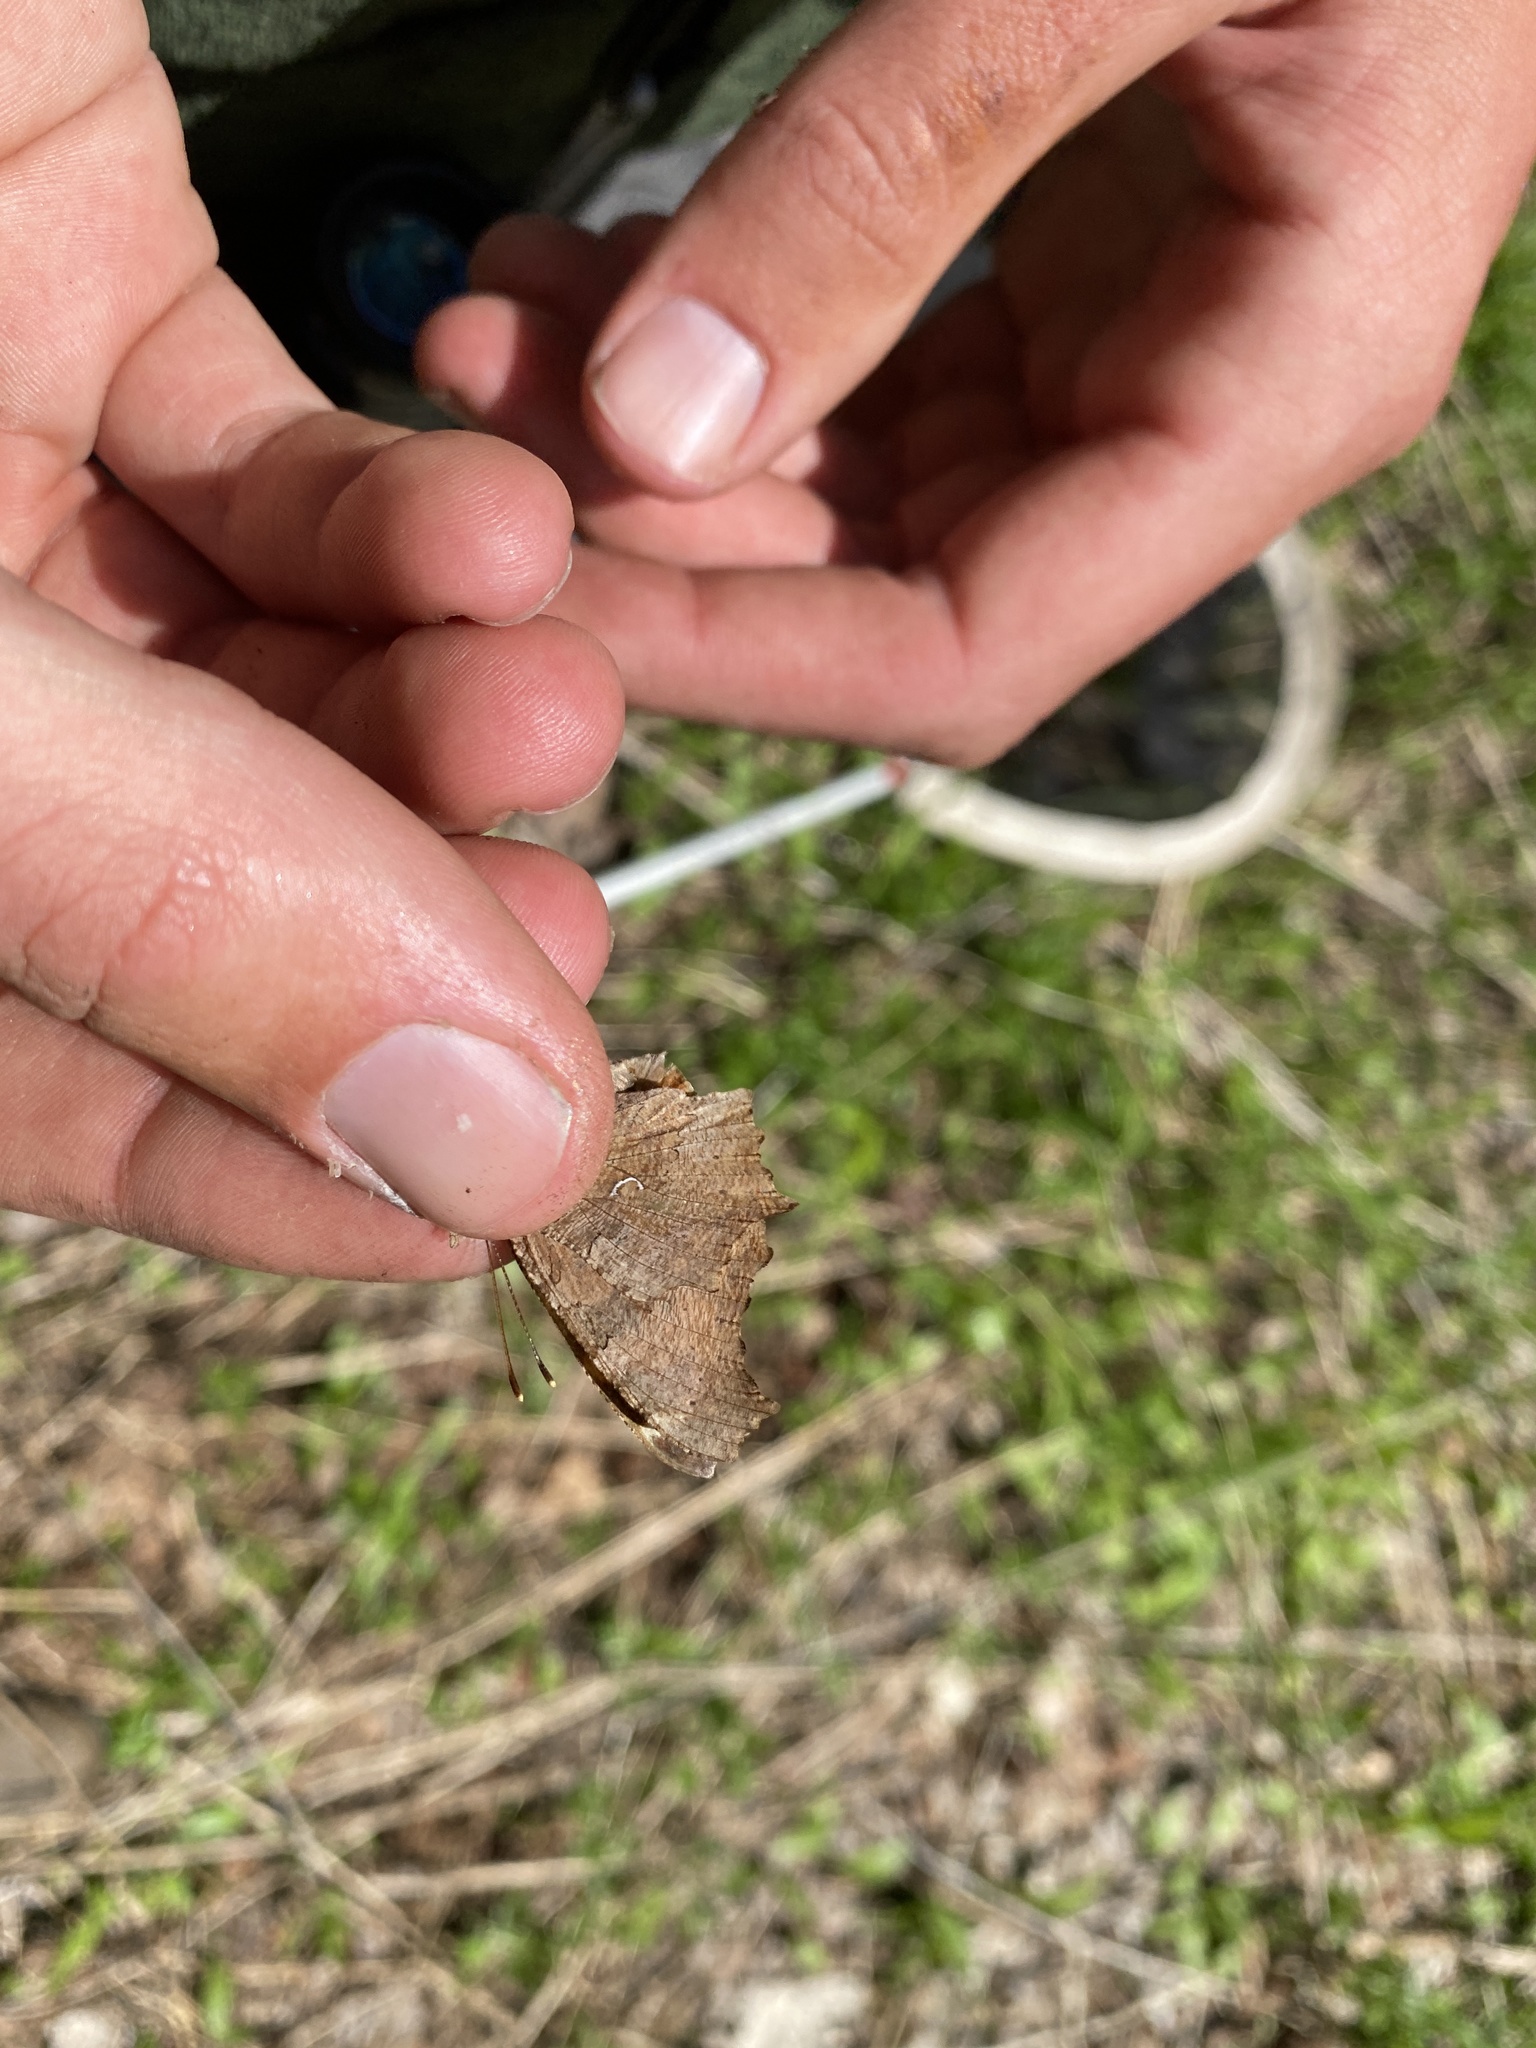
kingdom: Animalia
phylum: Arthropoda
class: Insecta
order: Lepidoptera
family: Nymphalidae
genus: Polygonia
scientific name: Polygonia comma
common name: Eastern comma
